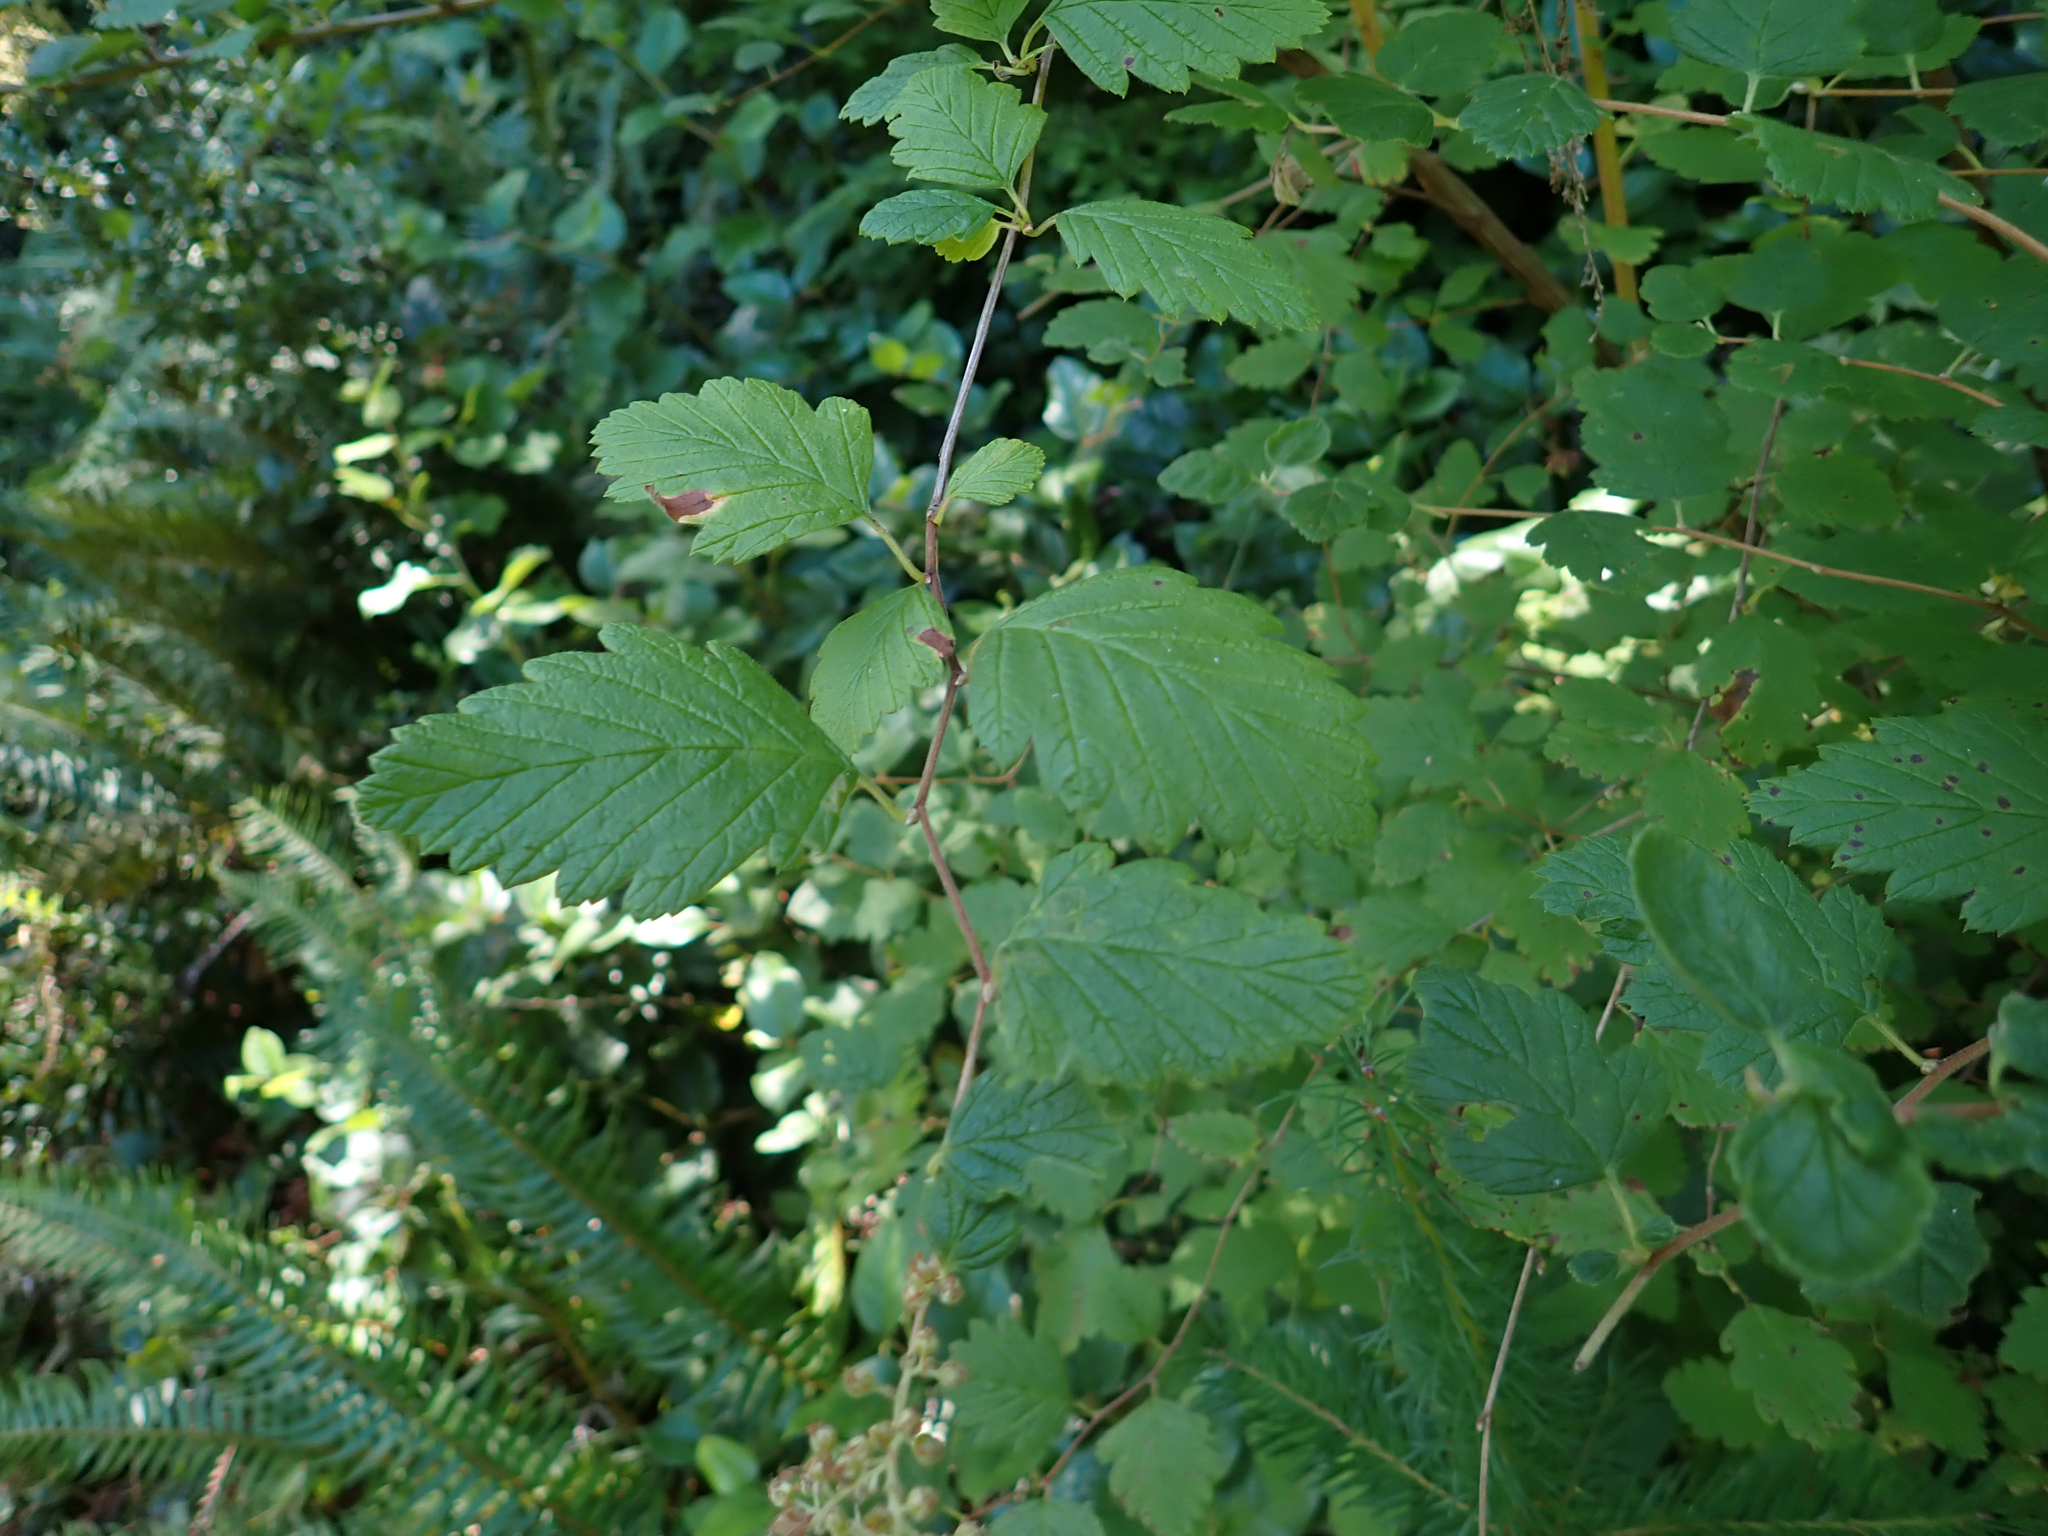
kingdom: Plantae
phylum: Tracheophyta
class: Magnoliopsida
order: Rosales
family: Rosaceae
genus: Holodiscus
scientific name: Holodiscus discolor
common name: Oceanspray
